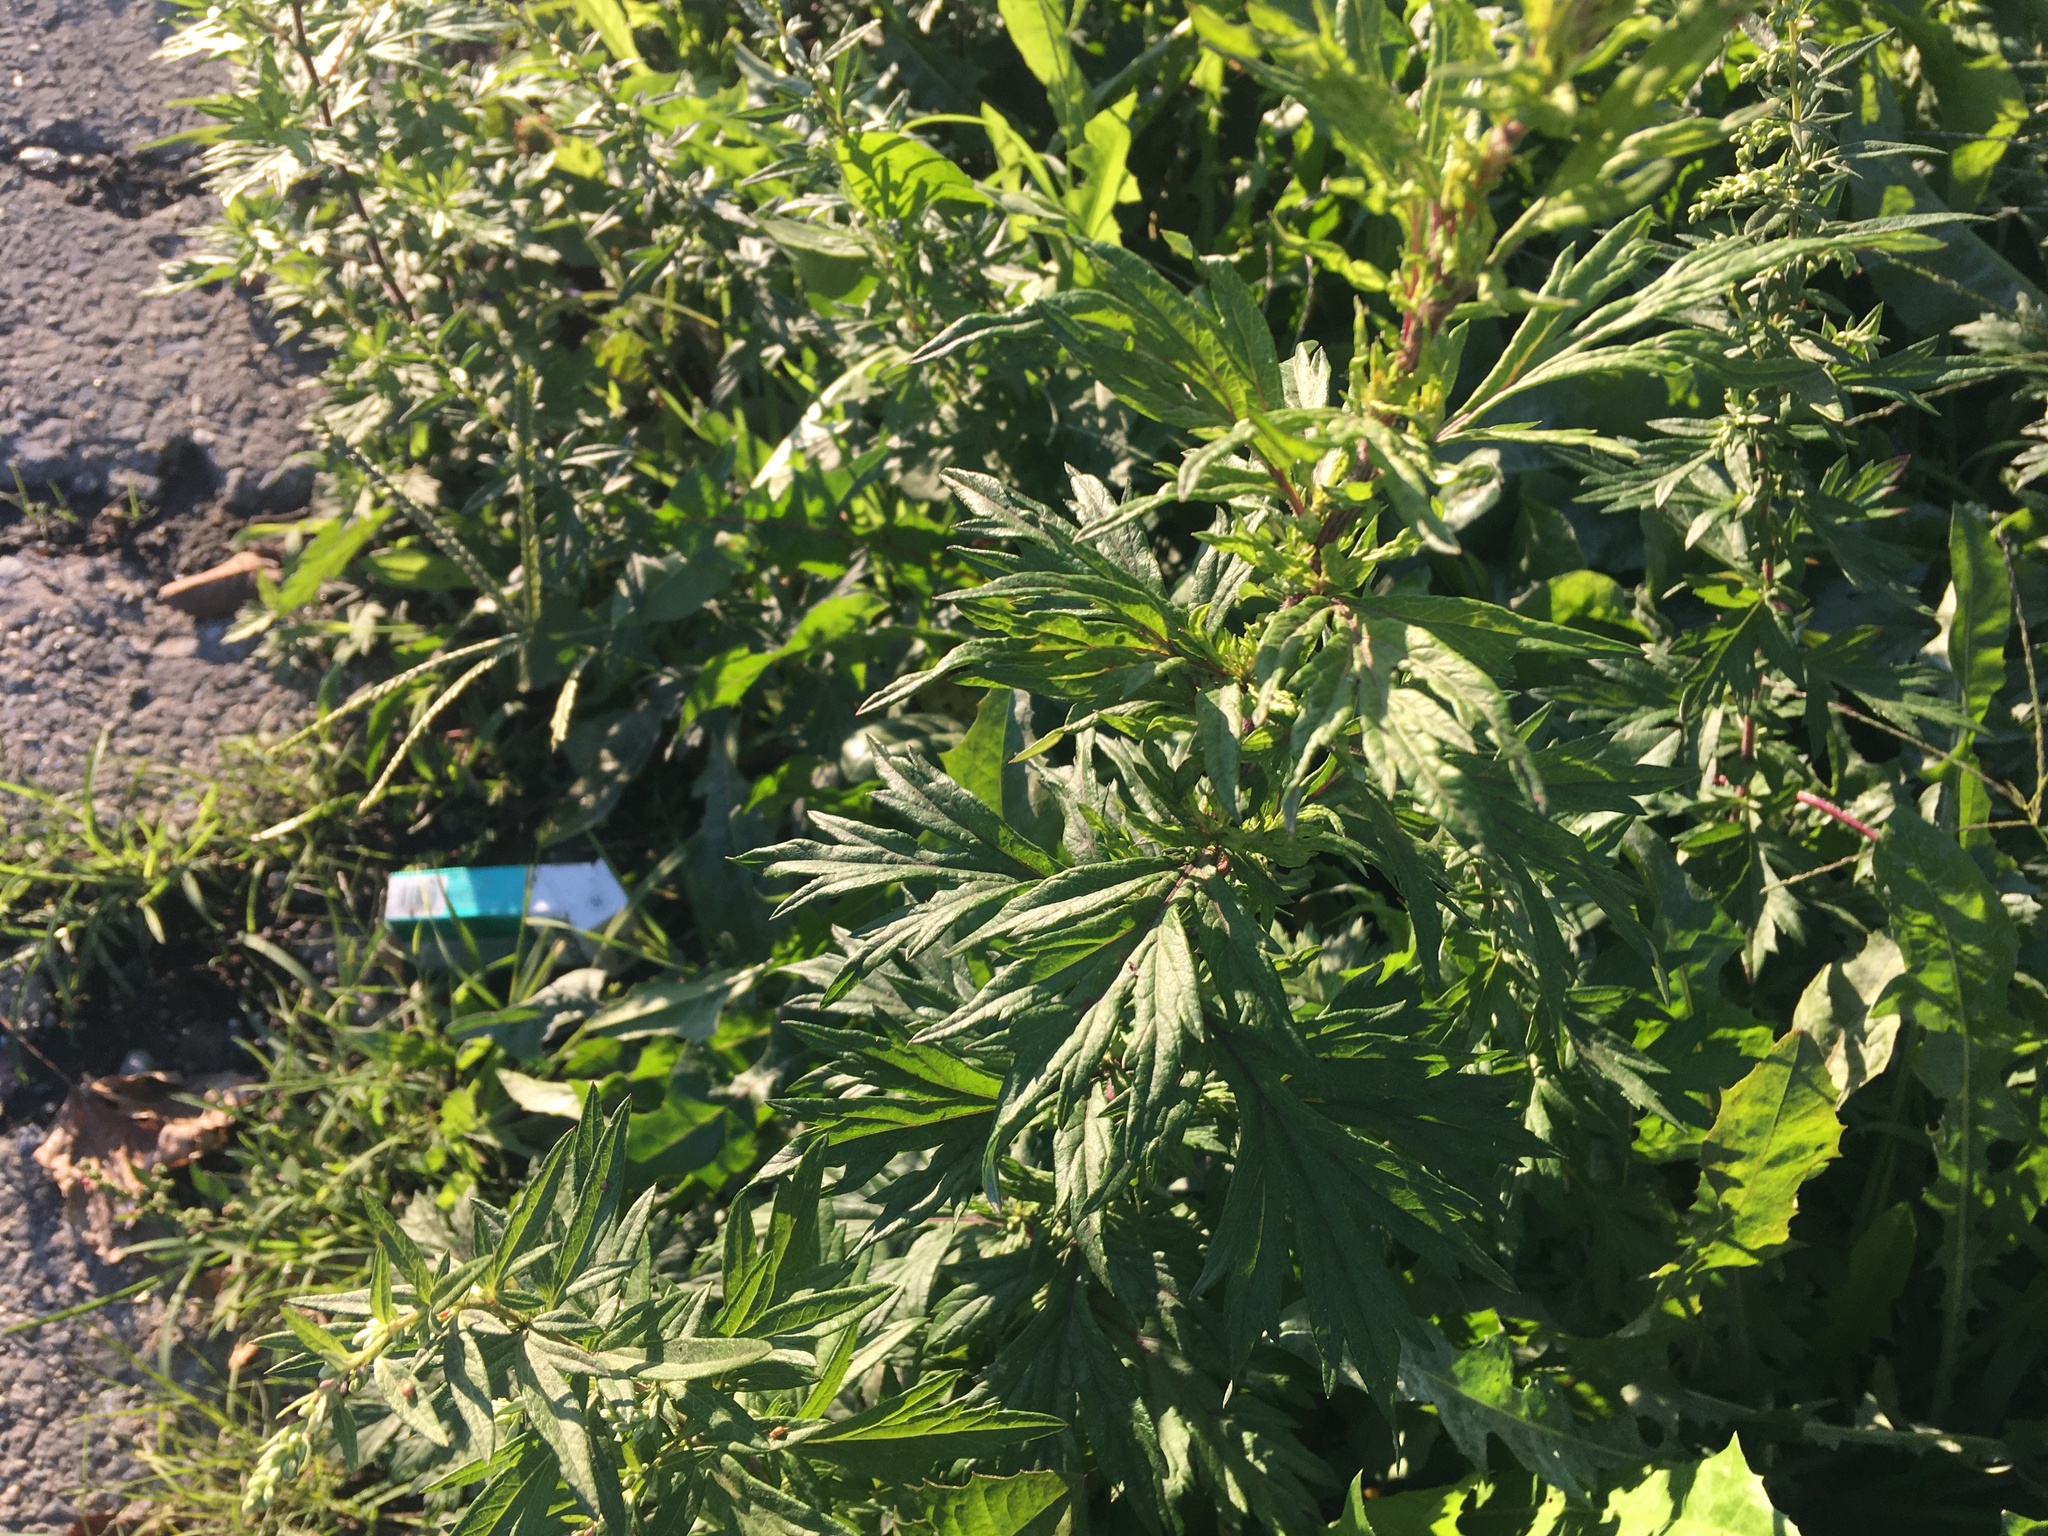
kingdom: Plantae
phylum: Tracheophyta
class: Magnoliopsida
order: Asterales
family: Asteraceae
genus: Artemisia
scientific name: Artemisia vulgaris
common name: Mugwort
